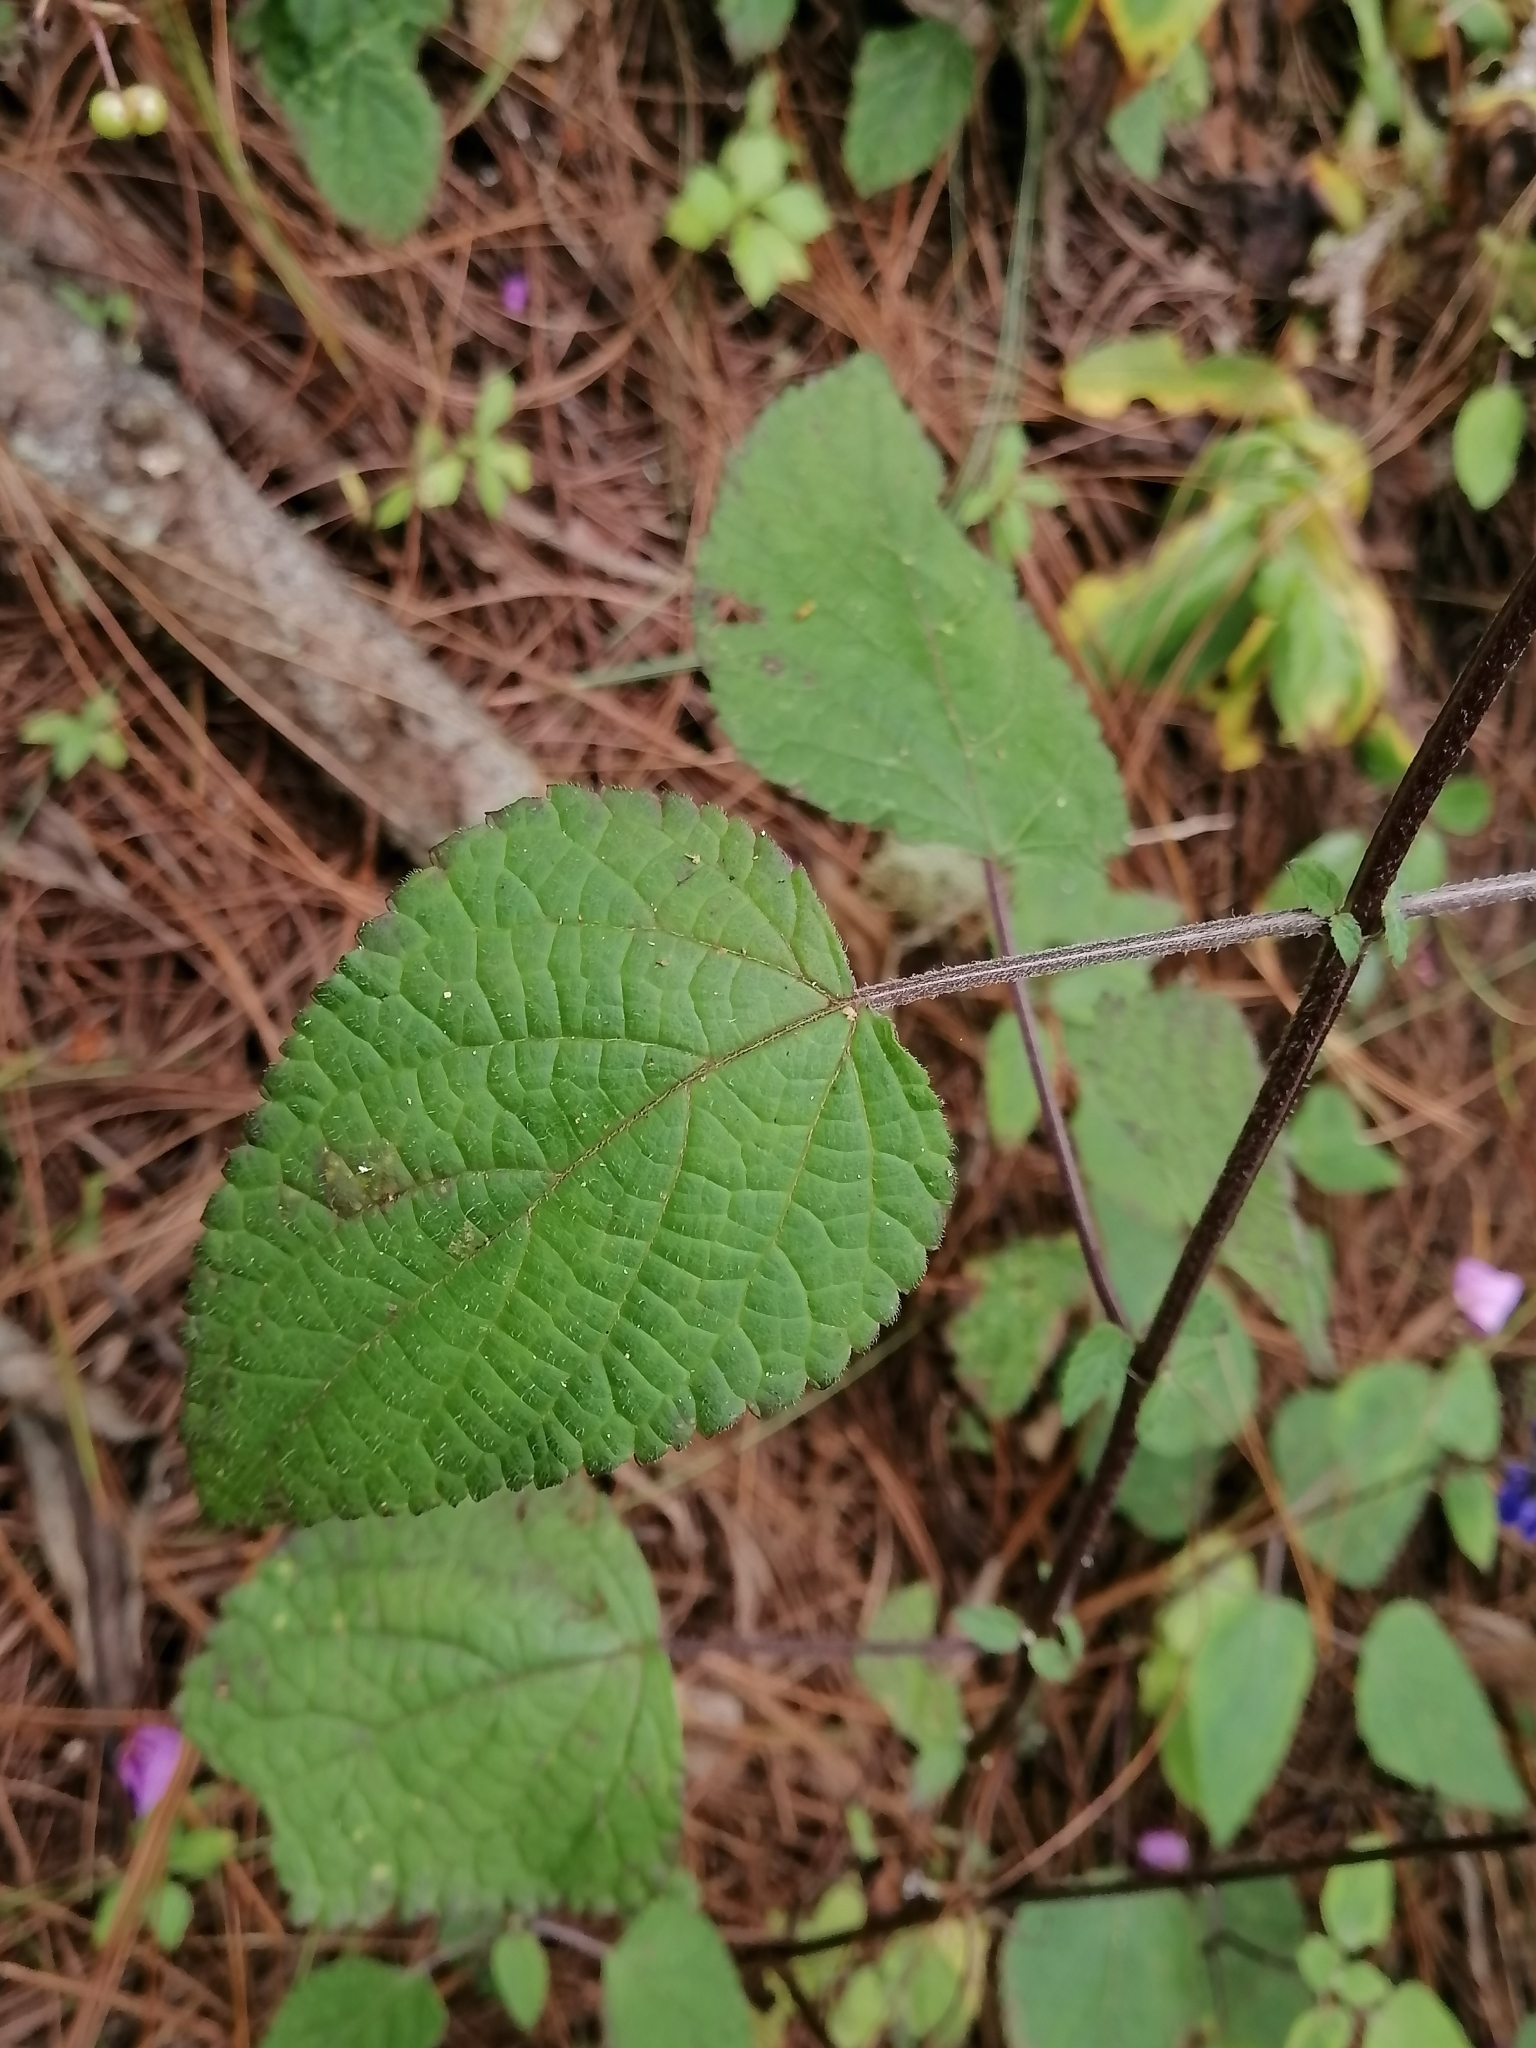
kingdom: Plantae
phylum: Tracheophyta
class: Magnoliopsida
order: Lamiales
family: Lamiaceae
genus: Salvia
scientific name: Salvia mocinoi
